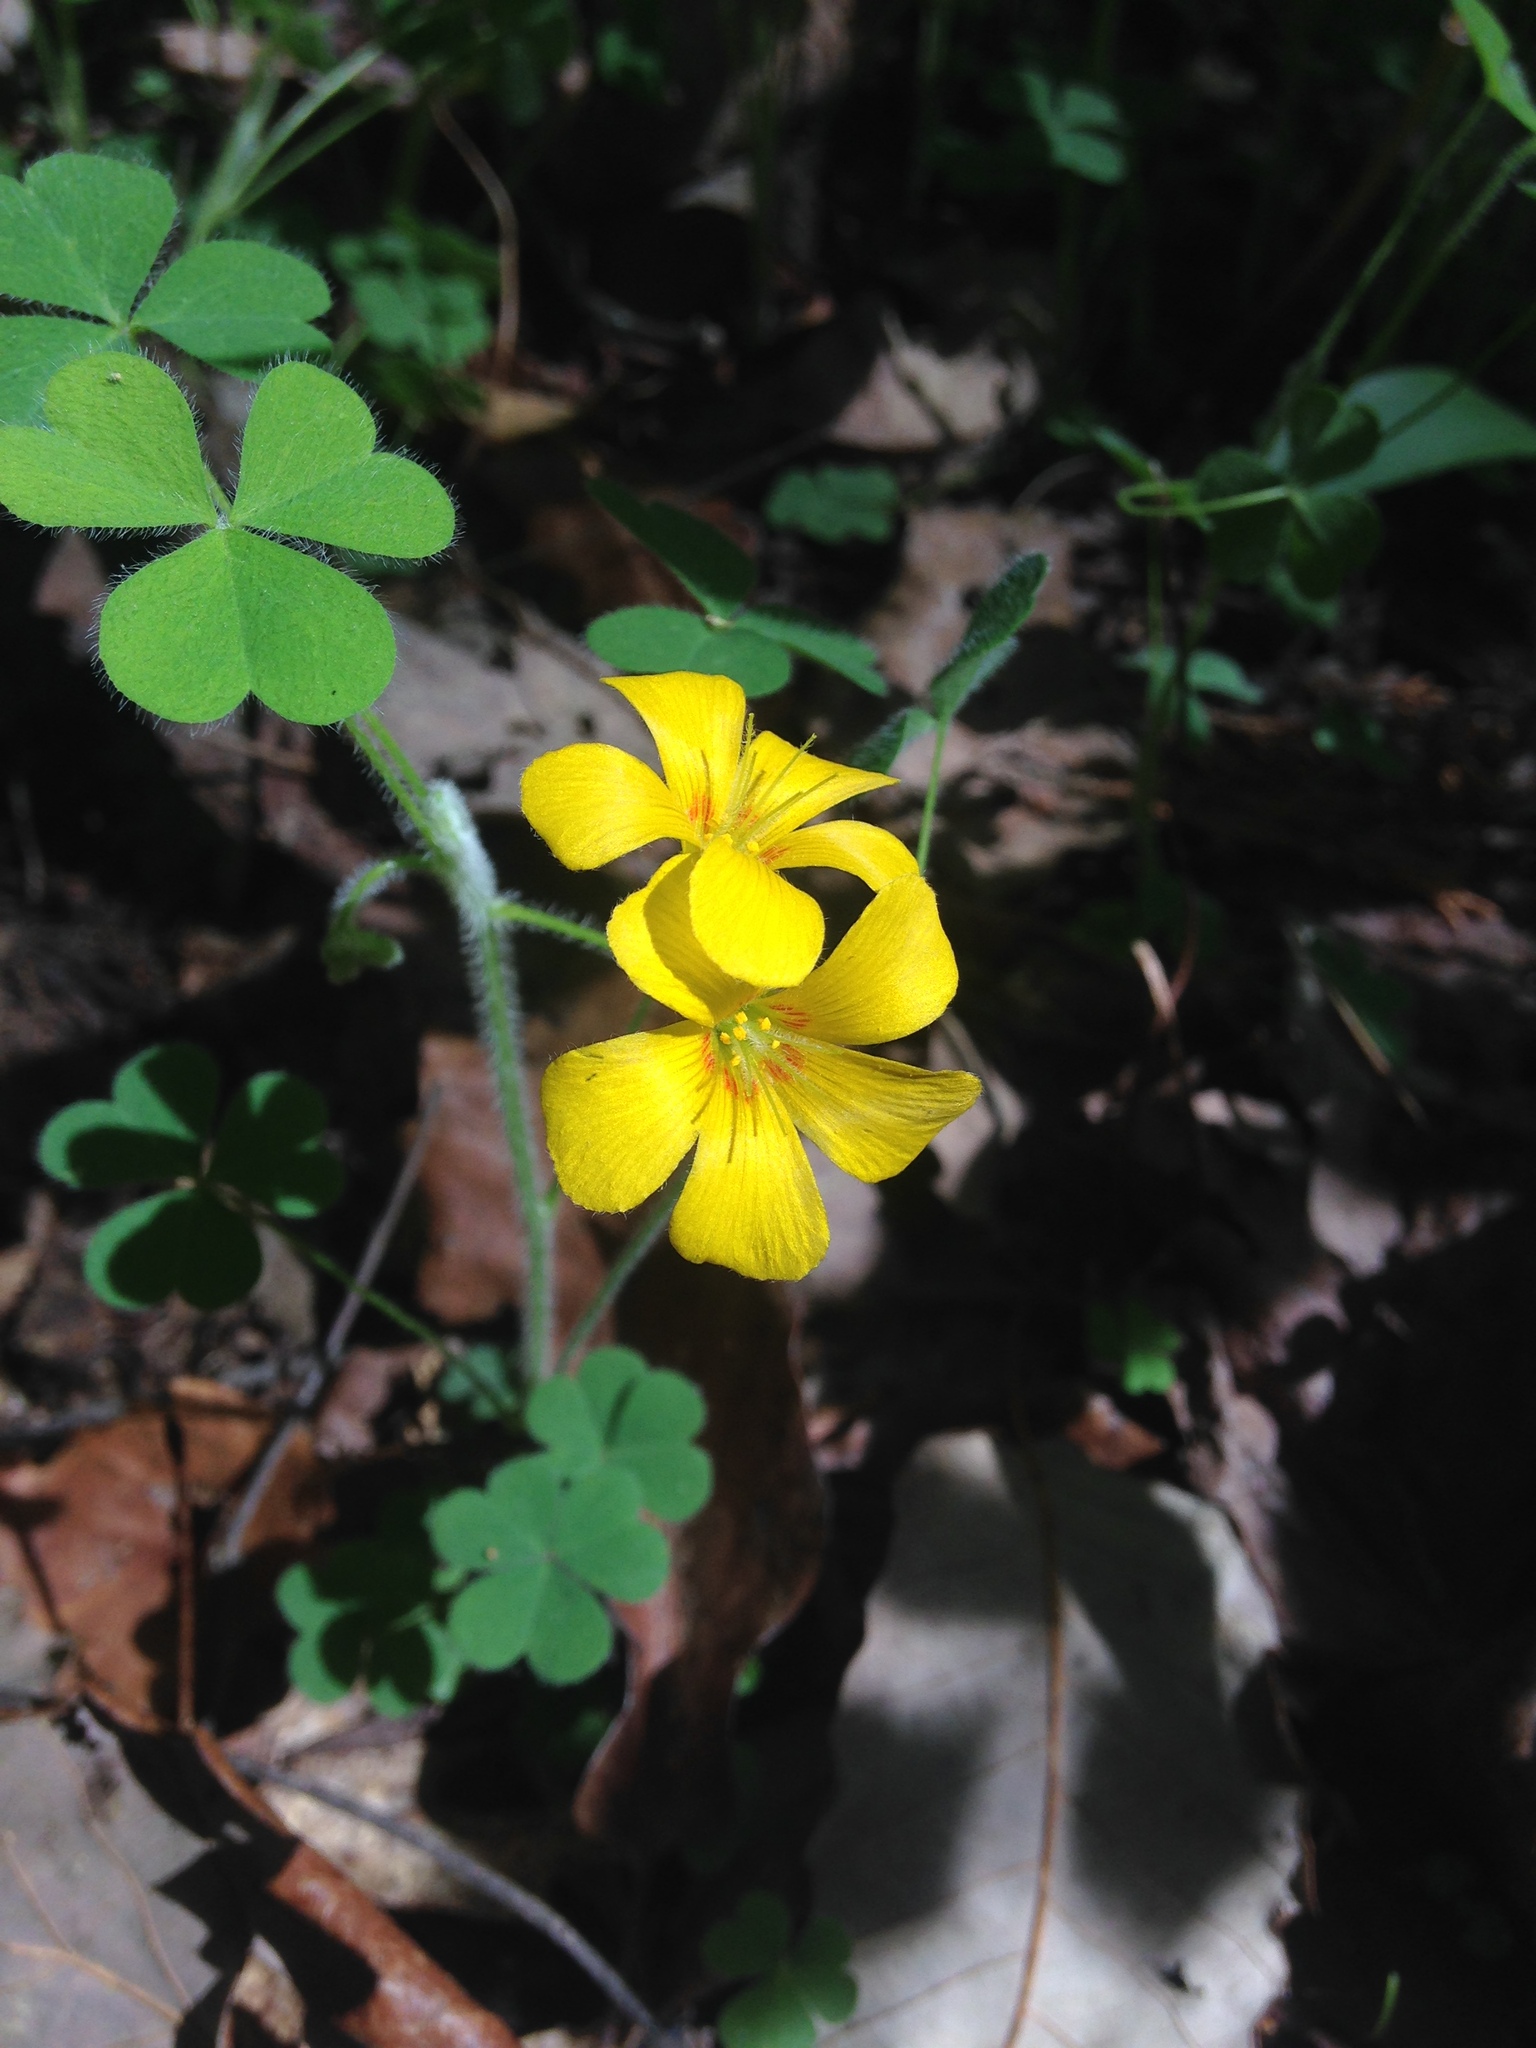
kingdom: Plantae
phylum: Tracheophyta
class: Magnoliopsida
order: Oxalidales
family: Oxalidaceae
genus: Oxalis
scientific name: Oxalis macrantha
